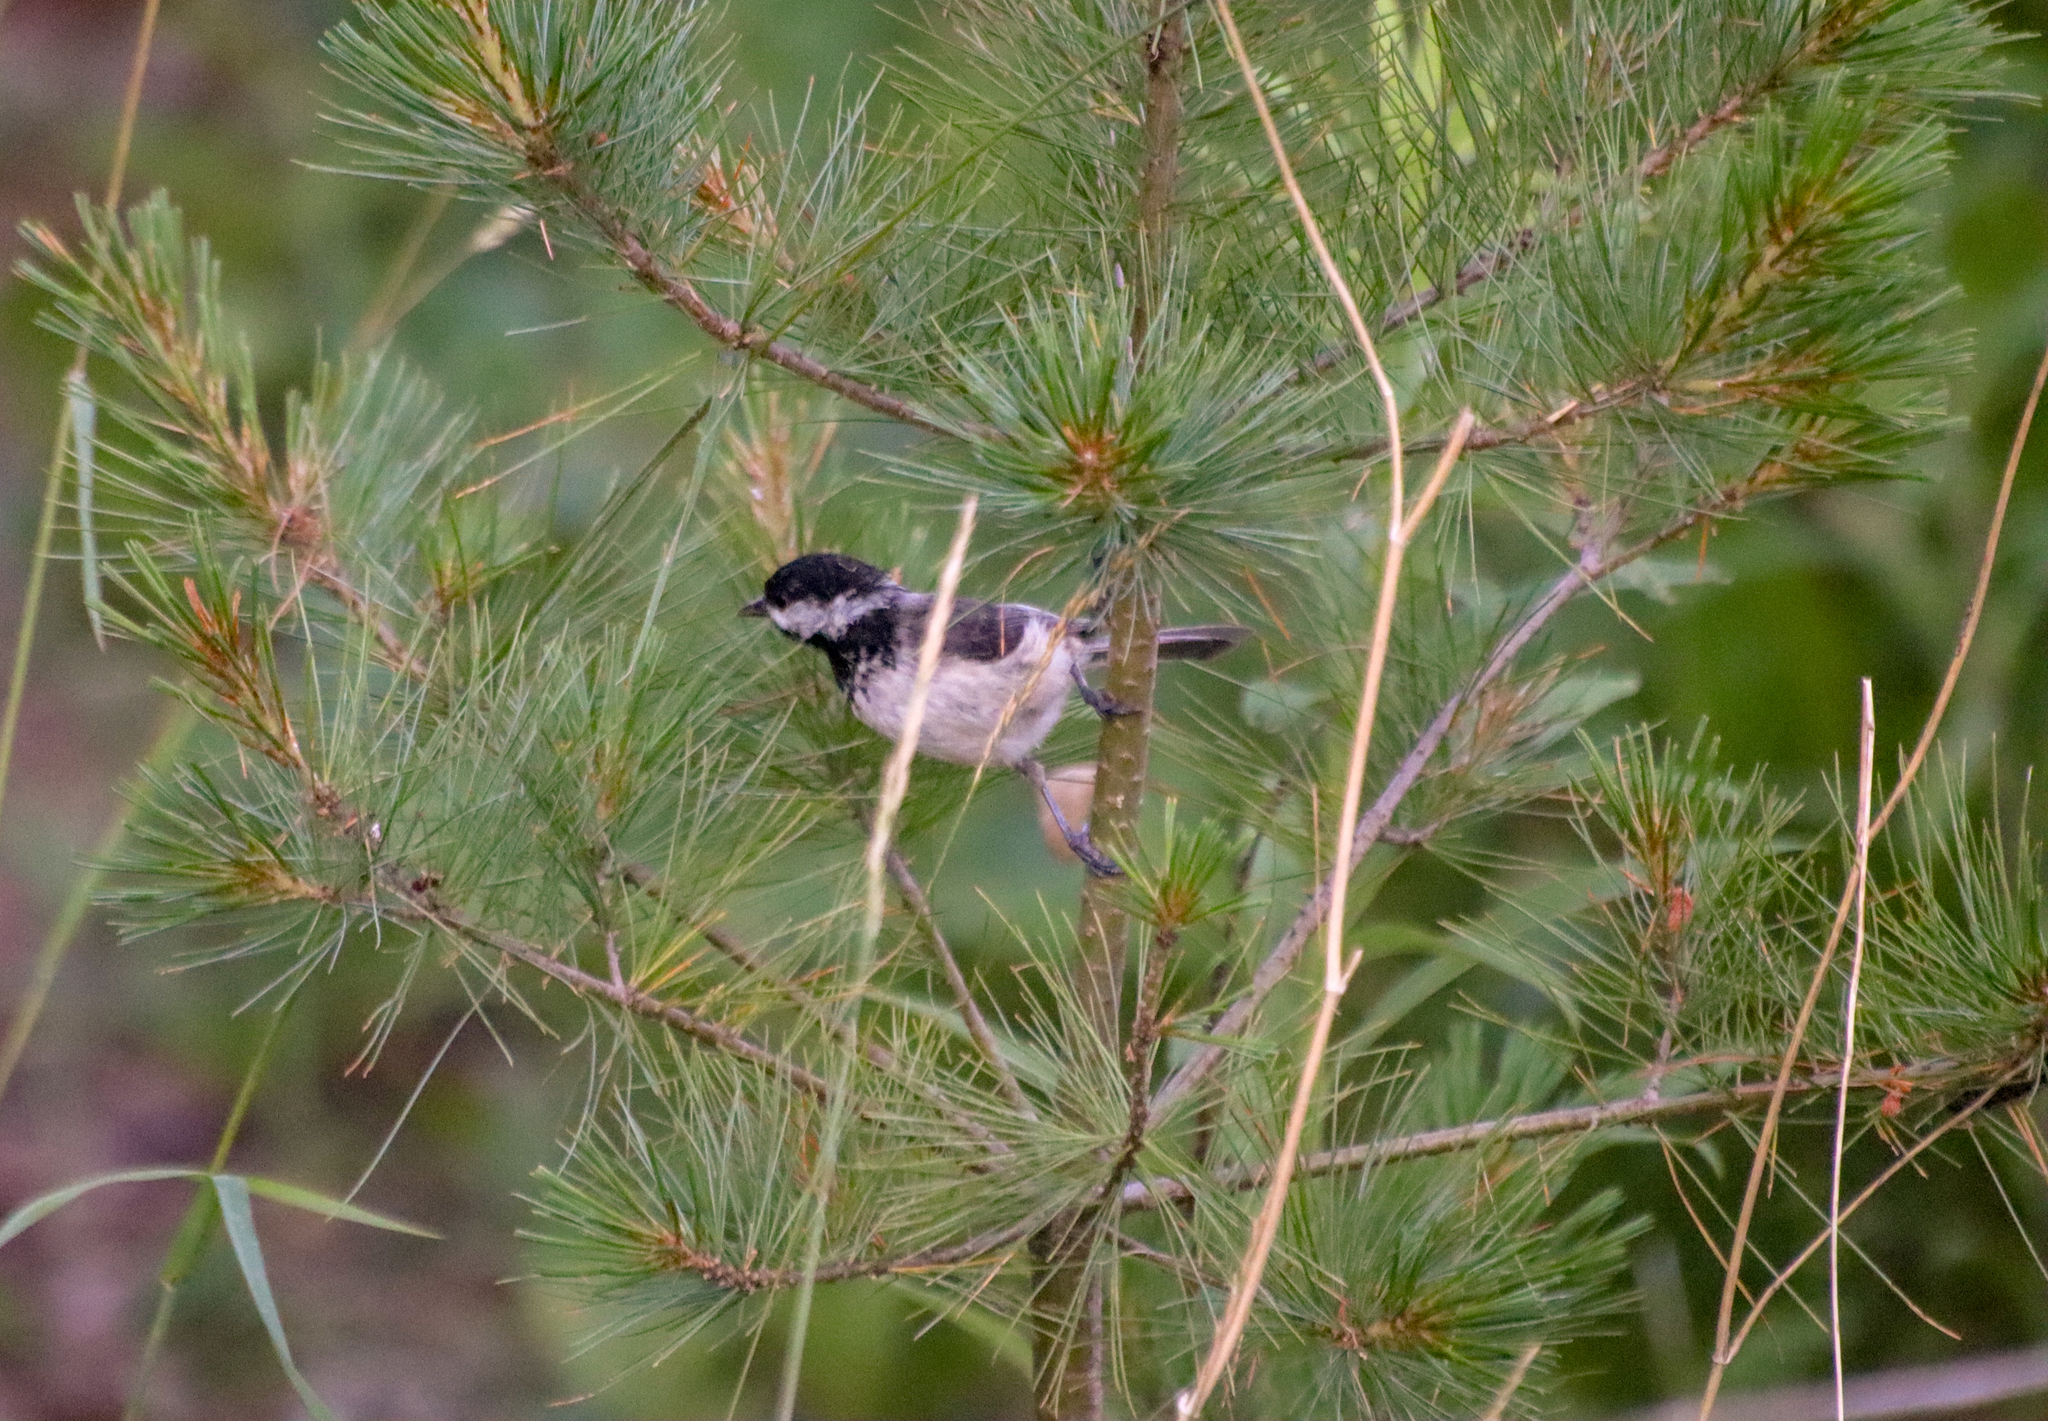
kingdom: Animalia
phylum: Chordata
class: Aves
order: Passeriformes
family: Paridae
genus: Poecile
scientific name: Poecile atricapillus
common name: Black-capped chickadee
